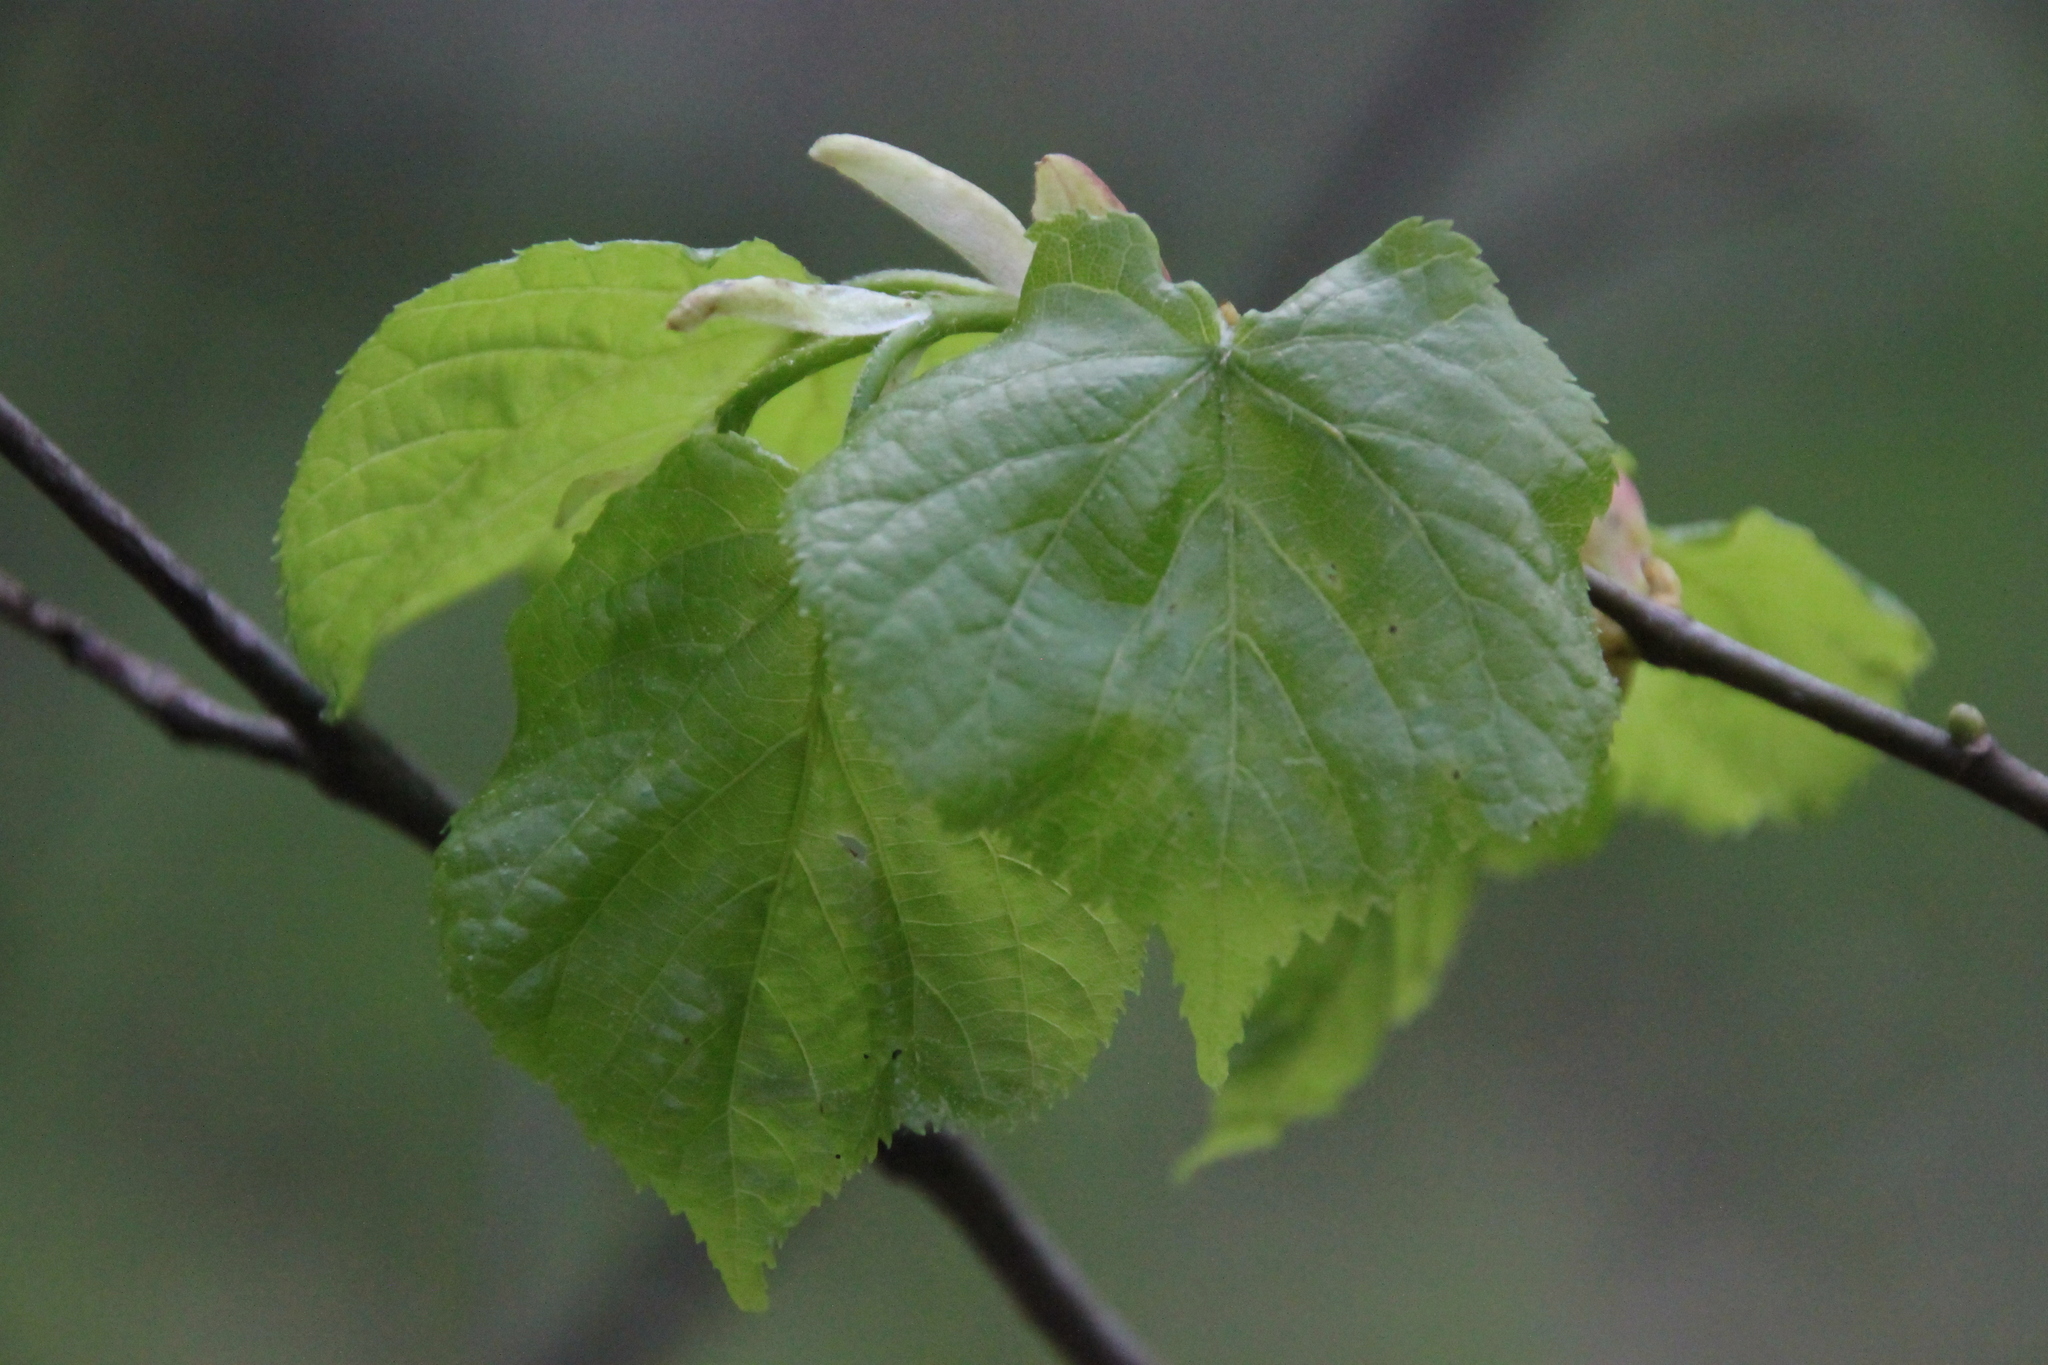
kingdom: Plantae
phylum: Tracheophyta
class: Magnoliopsida
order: Malvales
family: Malvaceae
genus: Tilia
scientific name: Tilia cordata
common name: Small-leaved lime
